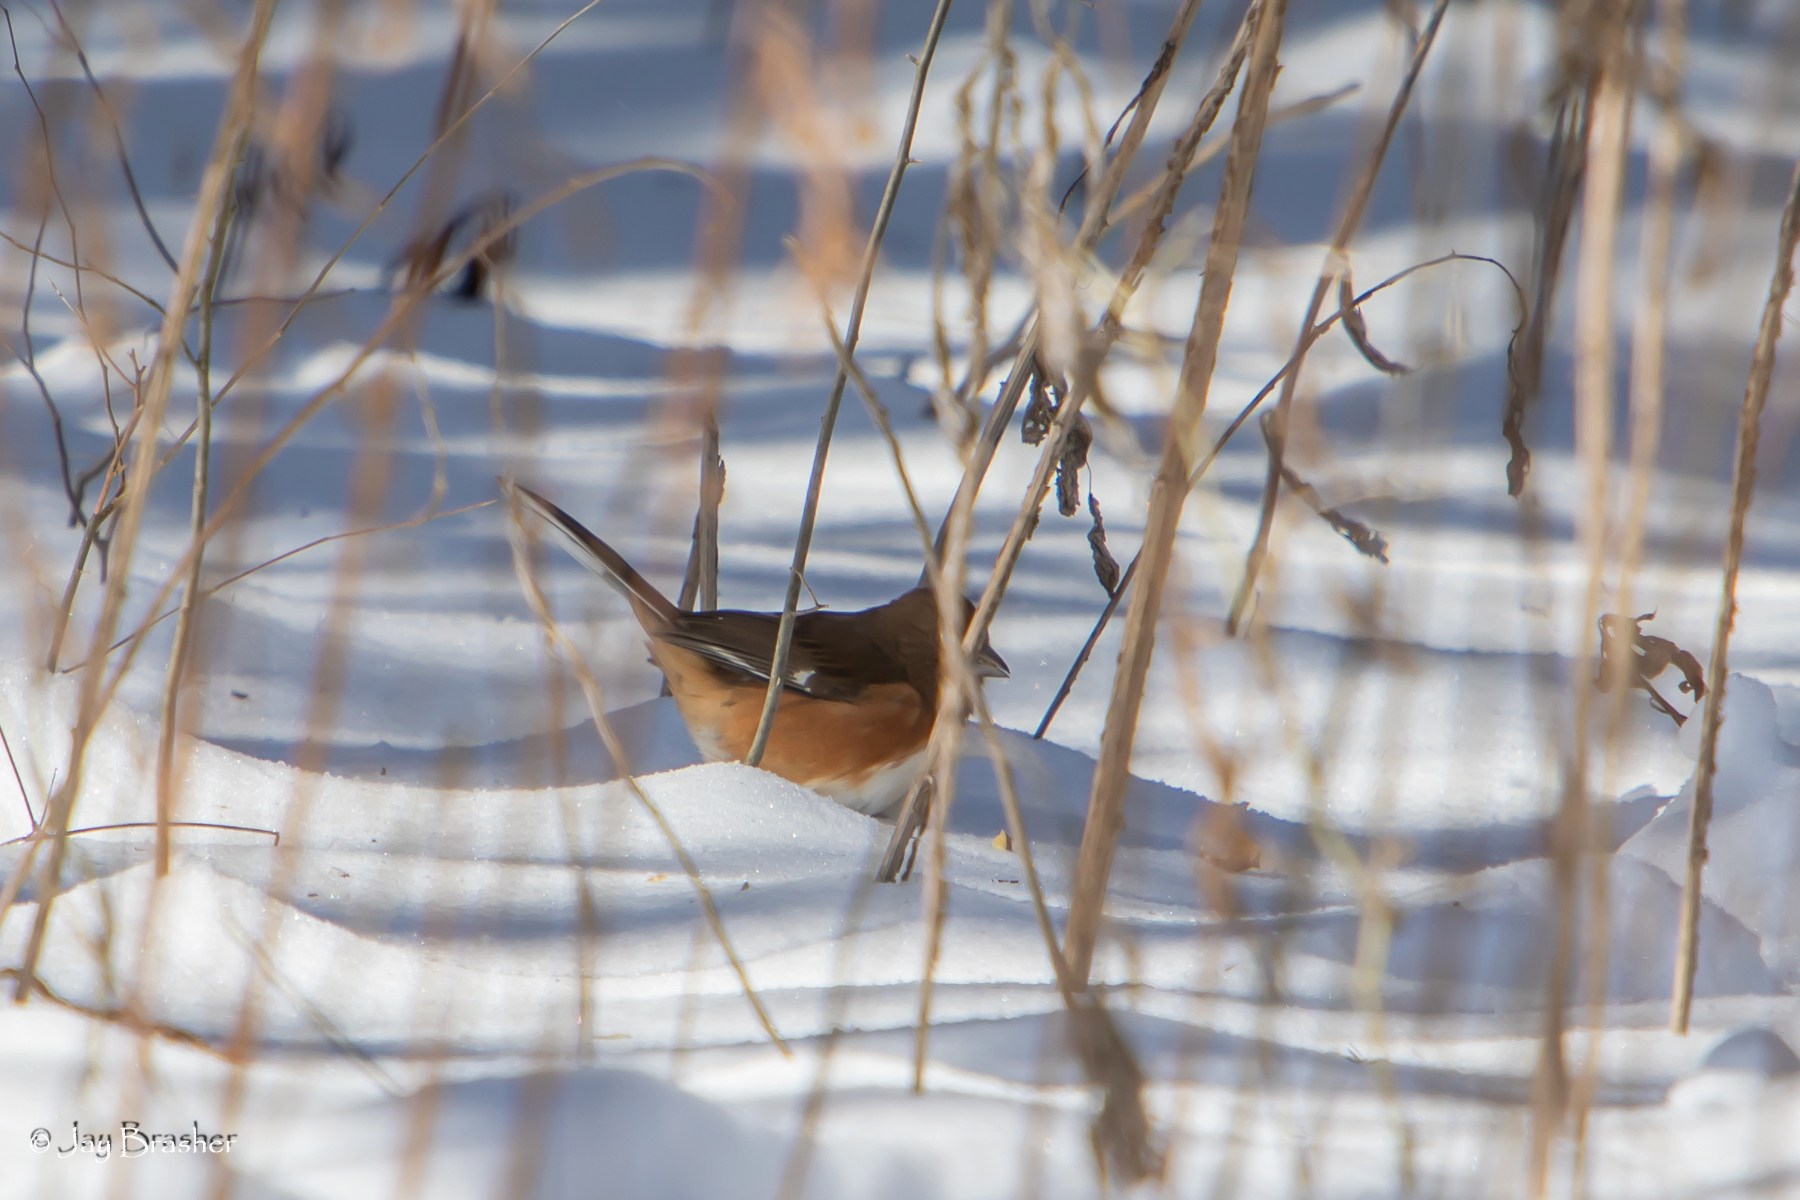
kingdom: Animalia
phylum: Chordata
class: Aves
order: Passeriformes
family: Passerellidae
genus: Pipilo
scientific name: Pipilo erythrophthalmus
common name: Eastern towhee
